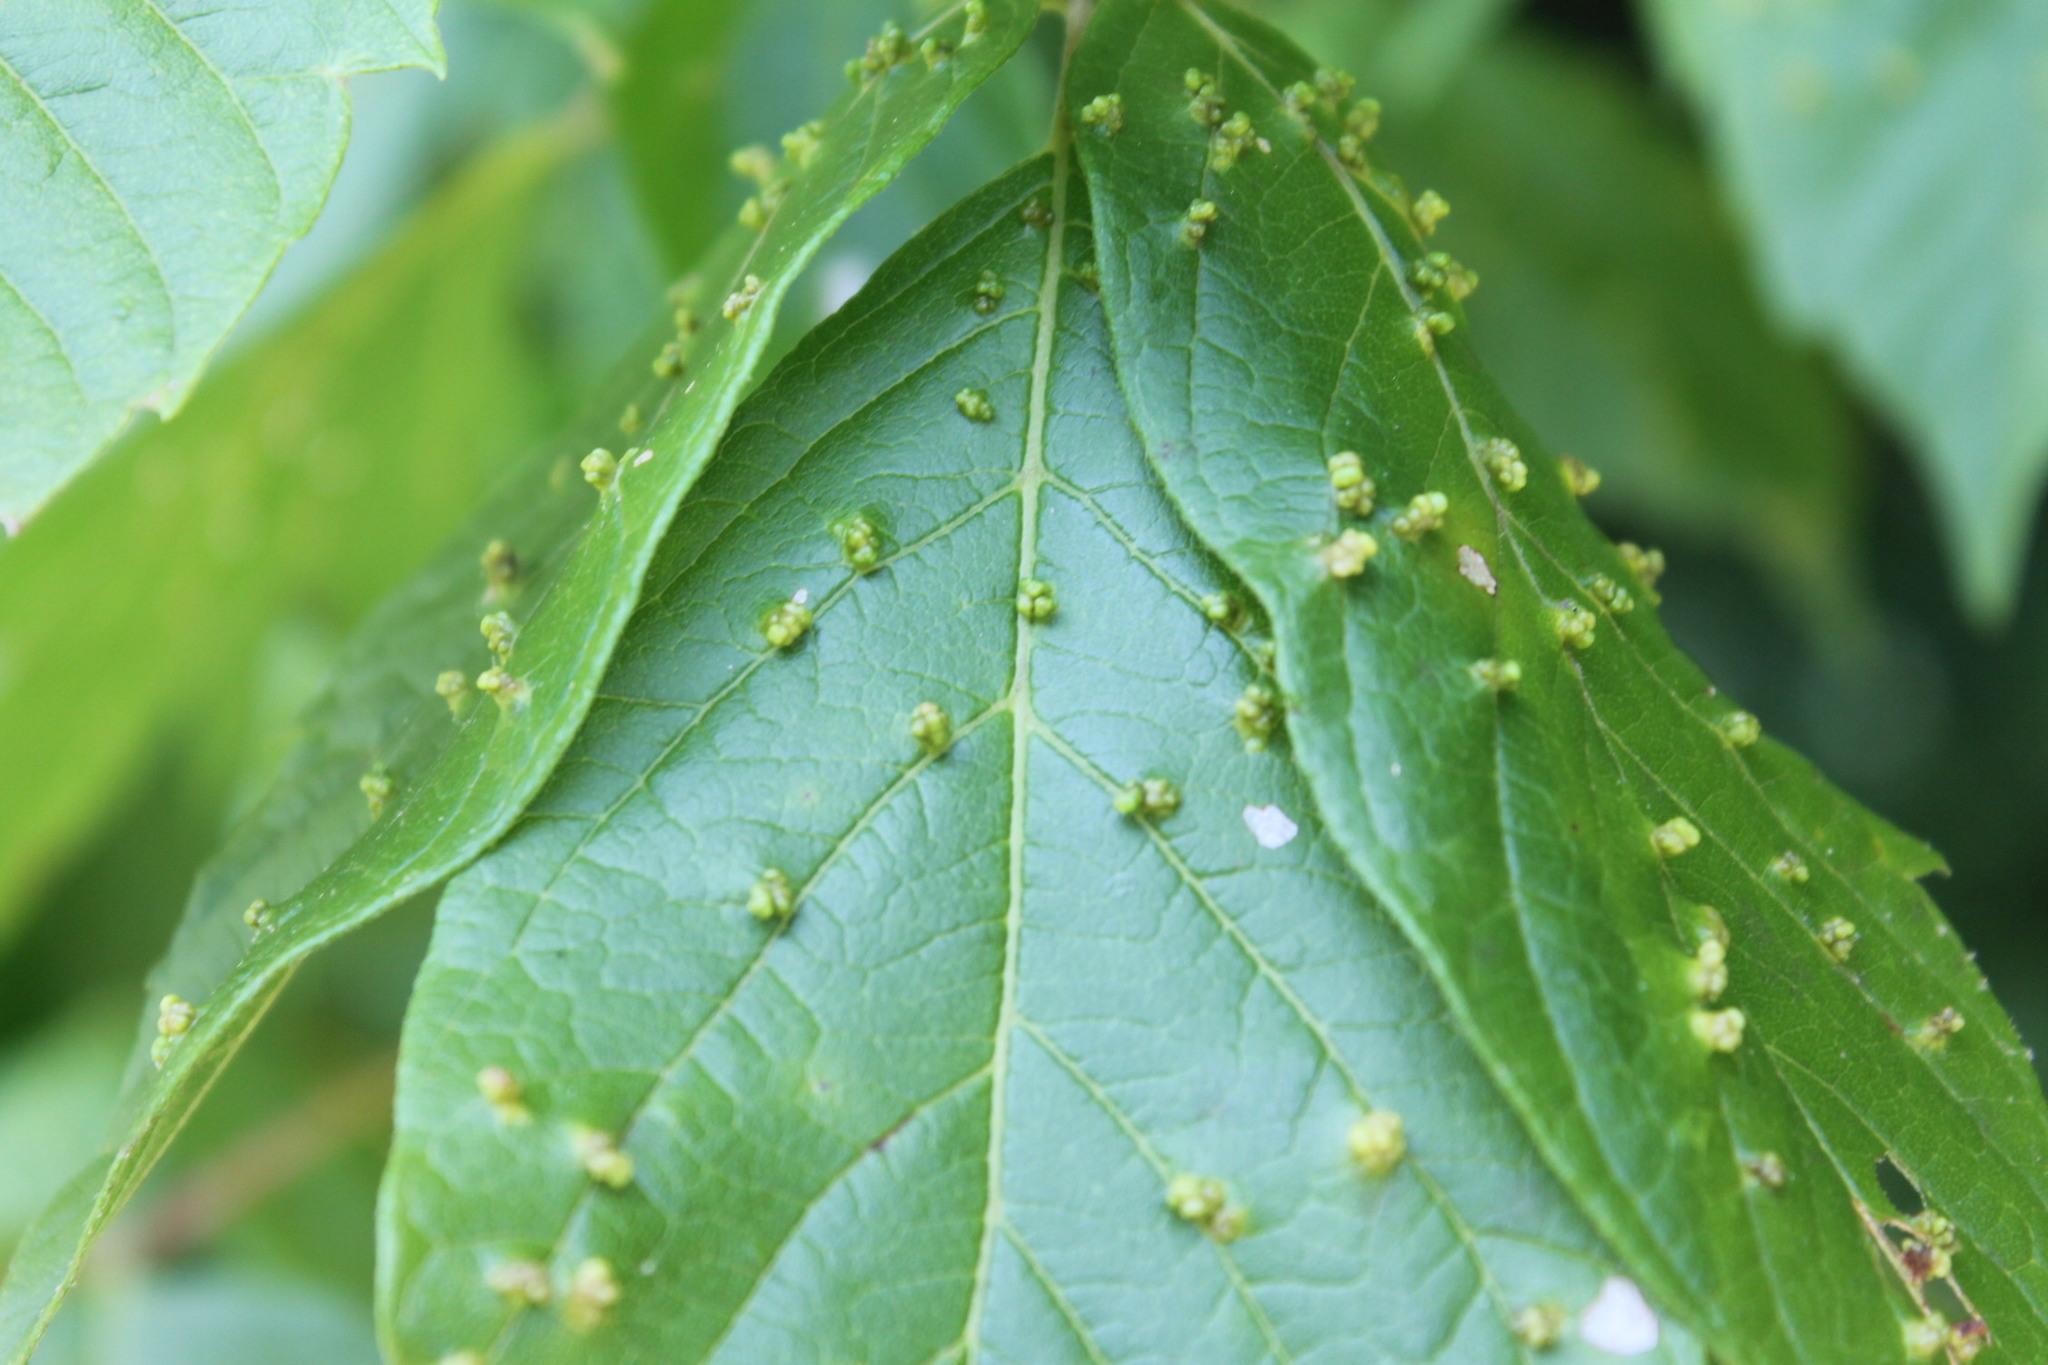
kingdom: Animalia
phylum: Arthropoda
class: Arachnida
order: Trombidiformes
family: Eriophyidae
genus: Aceria
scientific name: Aceria
